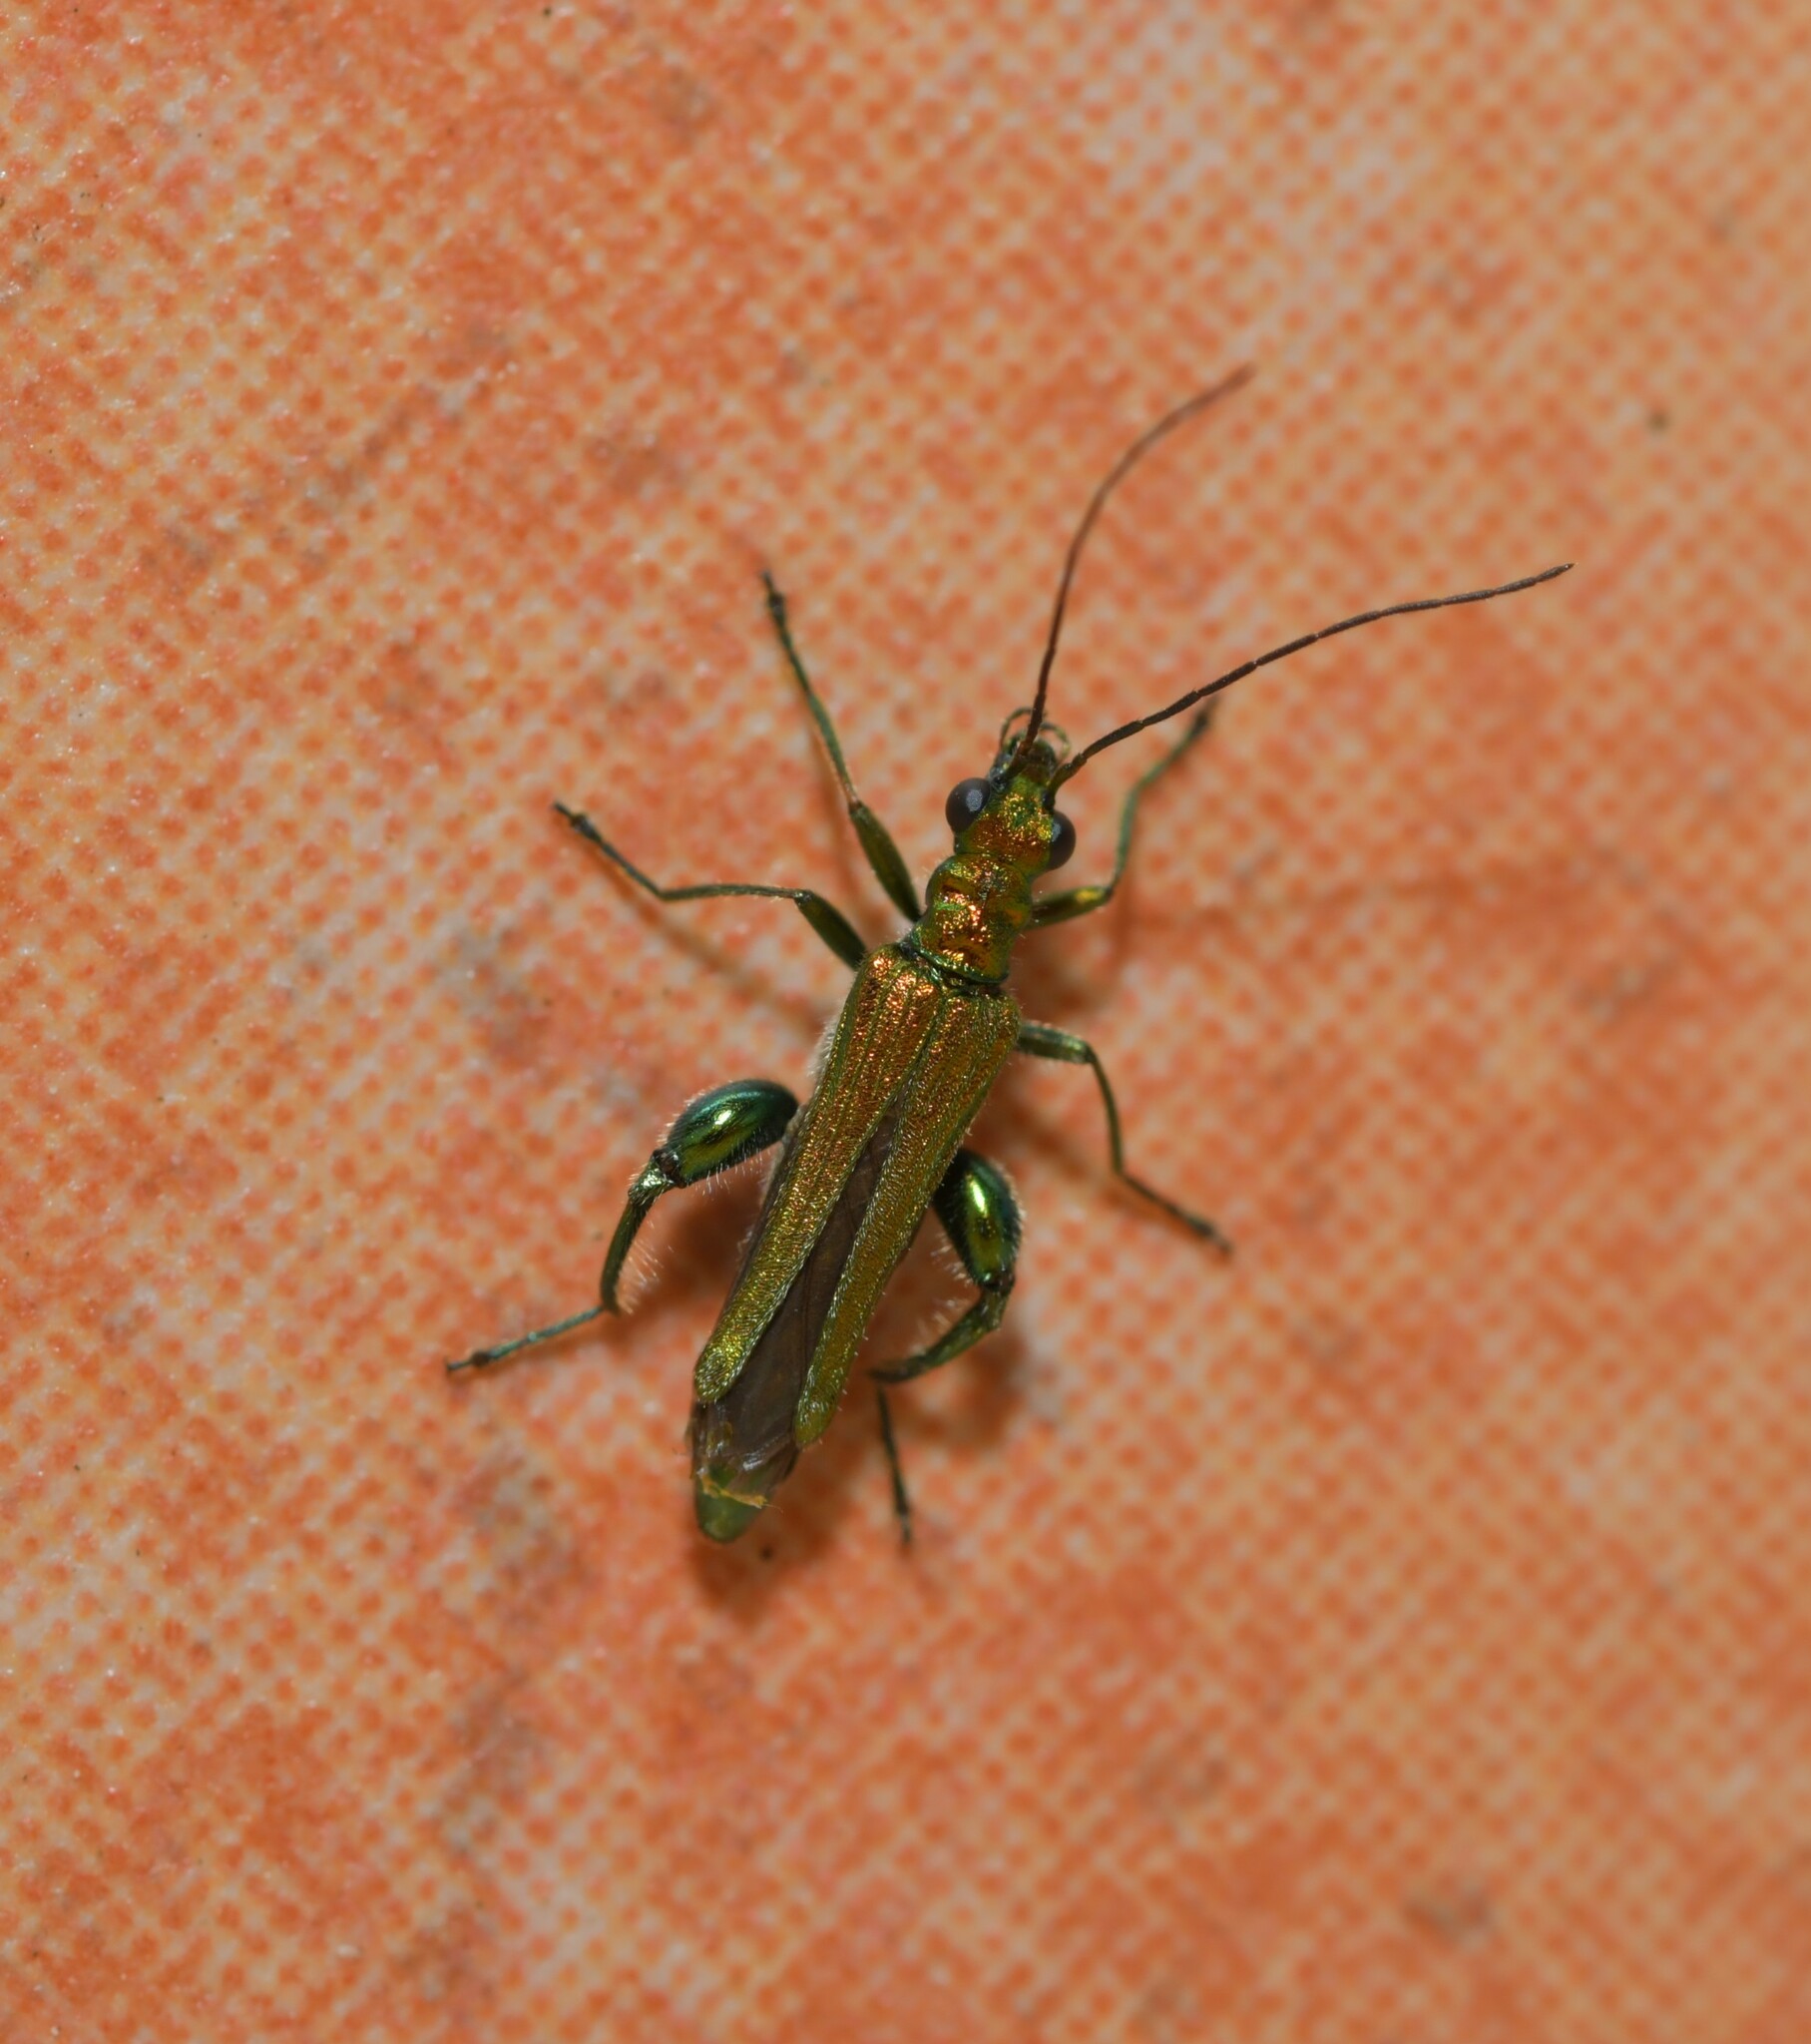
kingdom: Animalia
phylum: Arthropoda
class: Insecta
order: Coleoptera
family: Oedemeridae
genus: Oedemera
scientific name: Oedemera nobilis
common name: Swollen-thighed beetle
